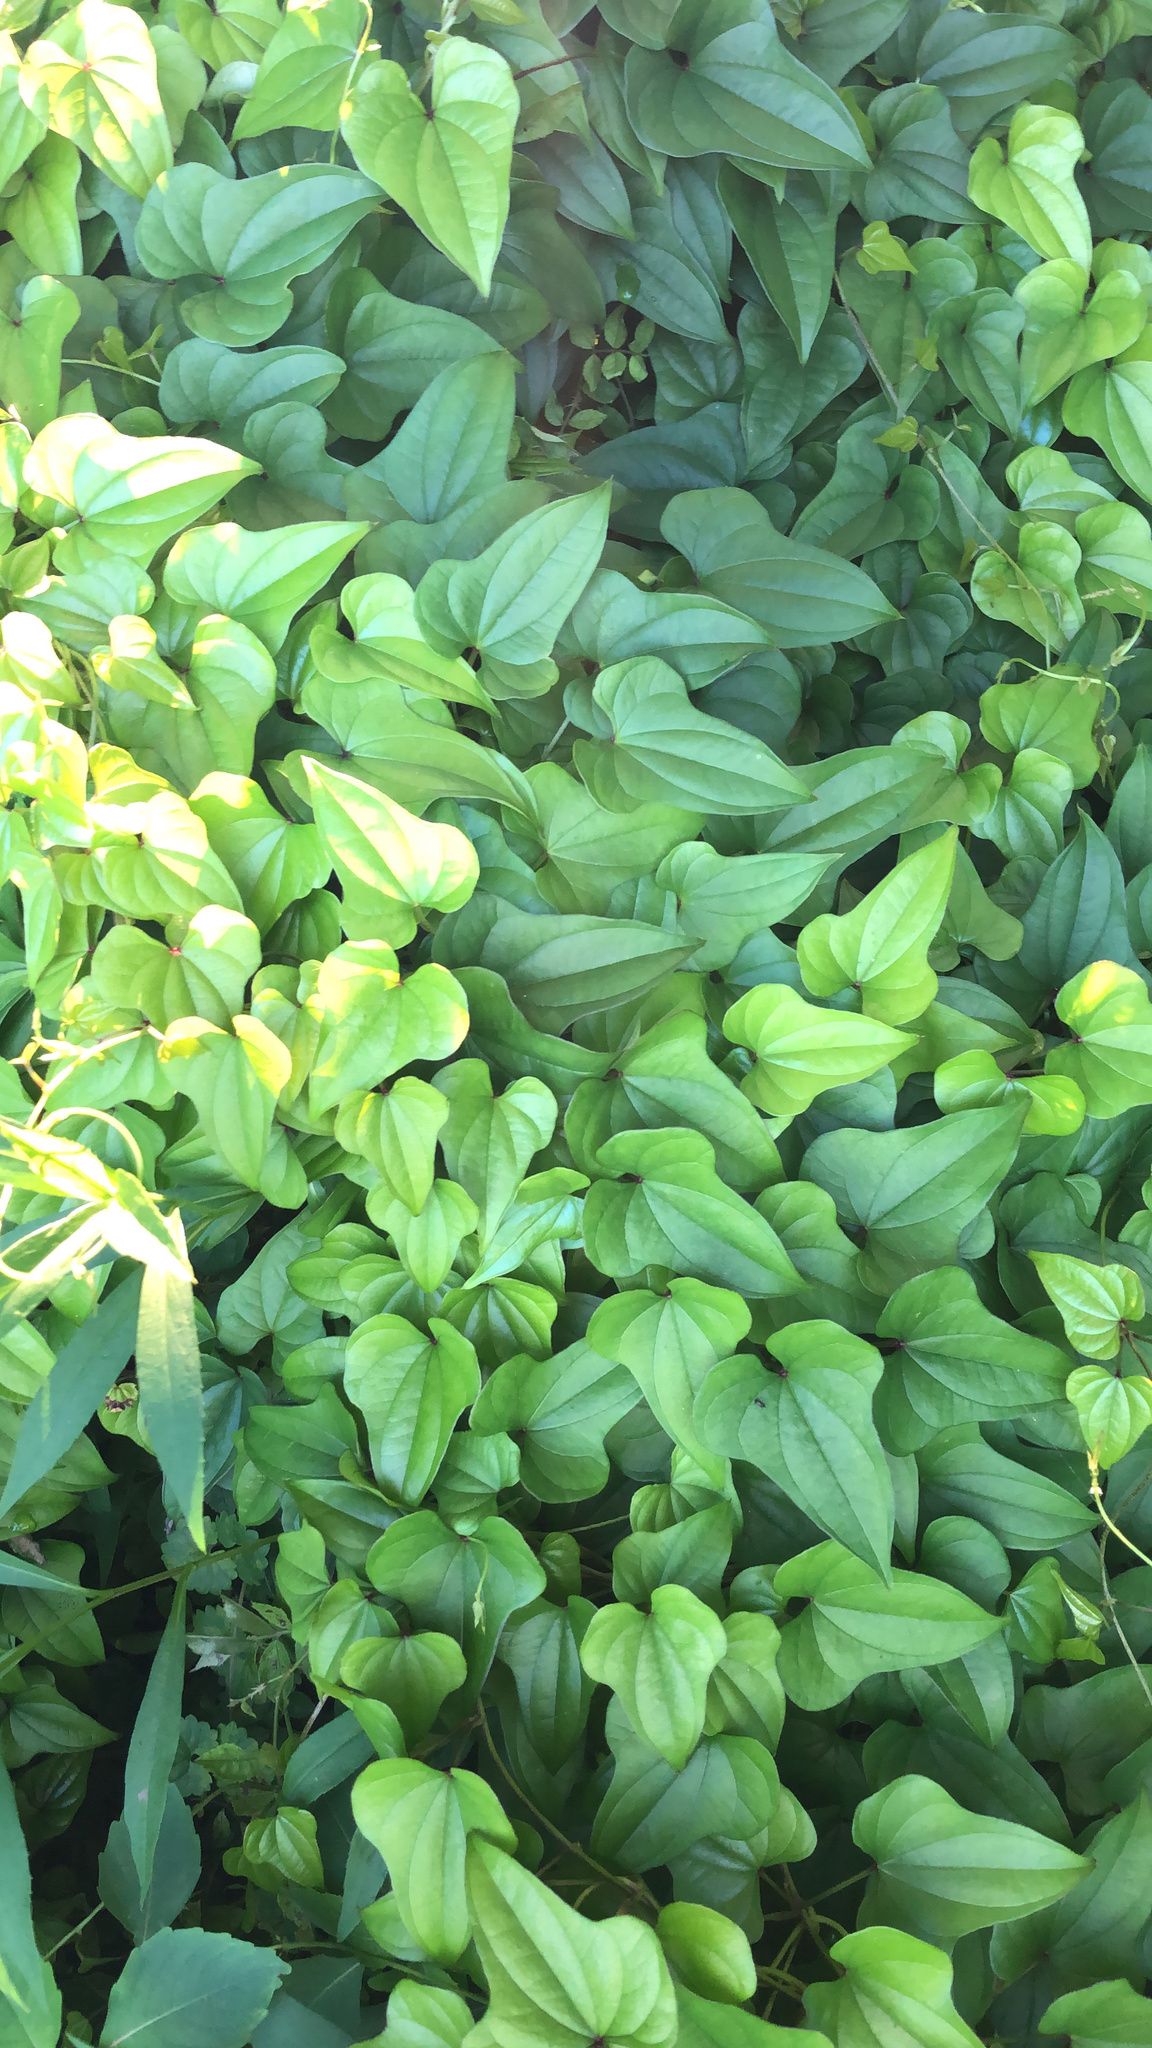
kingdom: Plantae
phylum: Tracheophyta
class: Liliopsida
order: Dioscoreales
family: Dioscoreaceae
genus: Dioscorea
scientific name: Dioscorea polystachya
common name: Chinese yam
